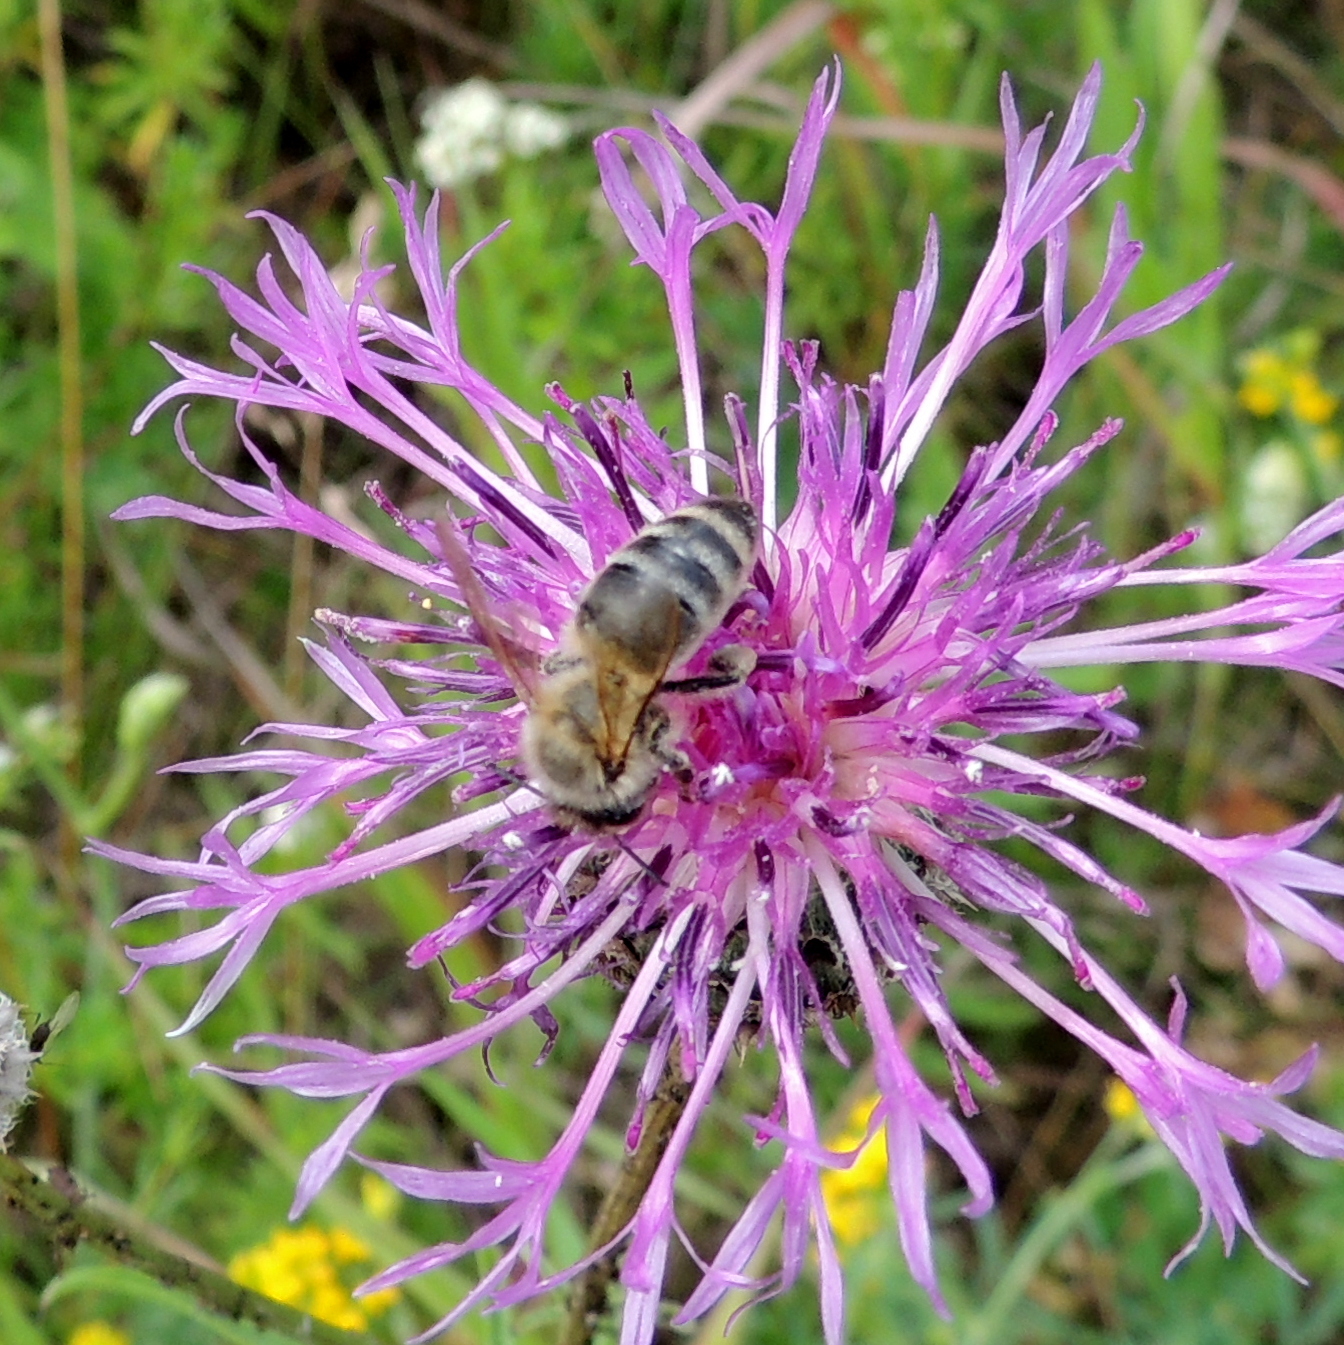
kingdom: Animalia
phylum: Arthropoda
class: Insecta
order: Hymenoptera
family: Apidae
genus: Apis
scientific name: Apis mellifera
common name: Honey bee
